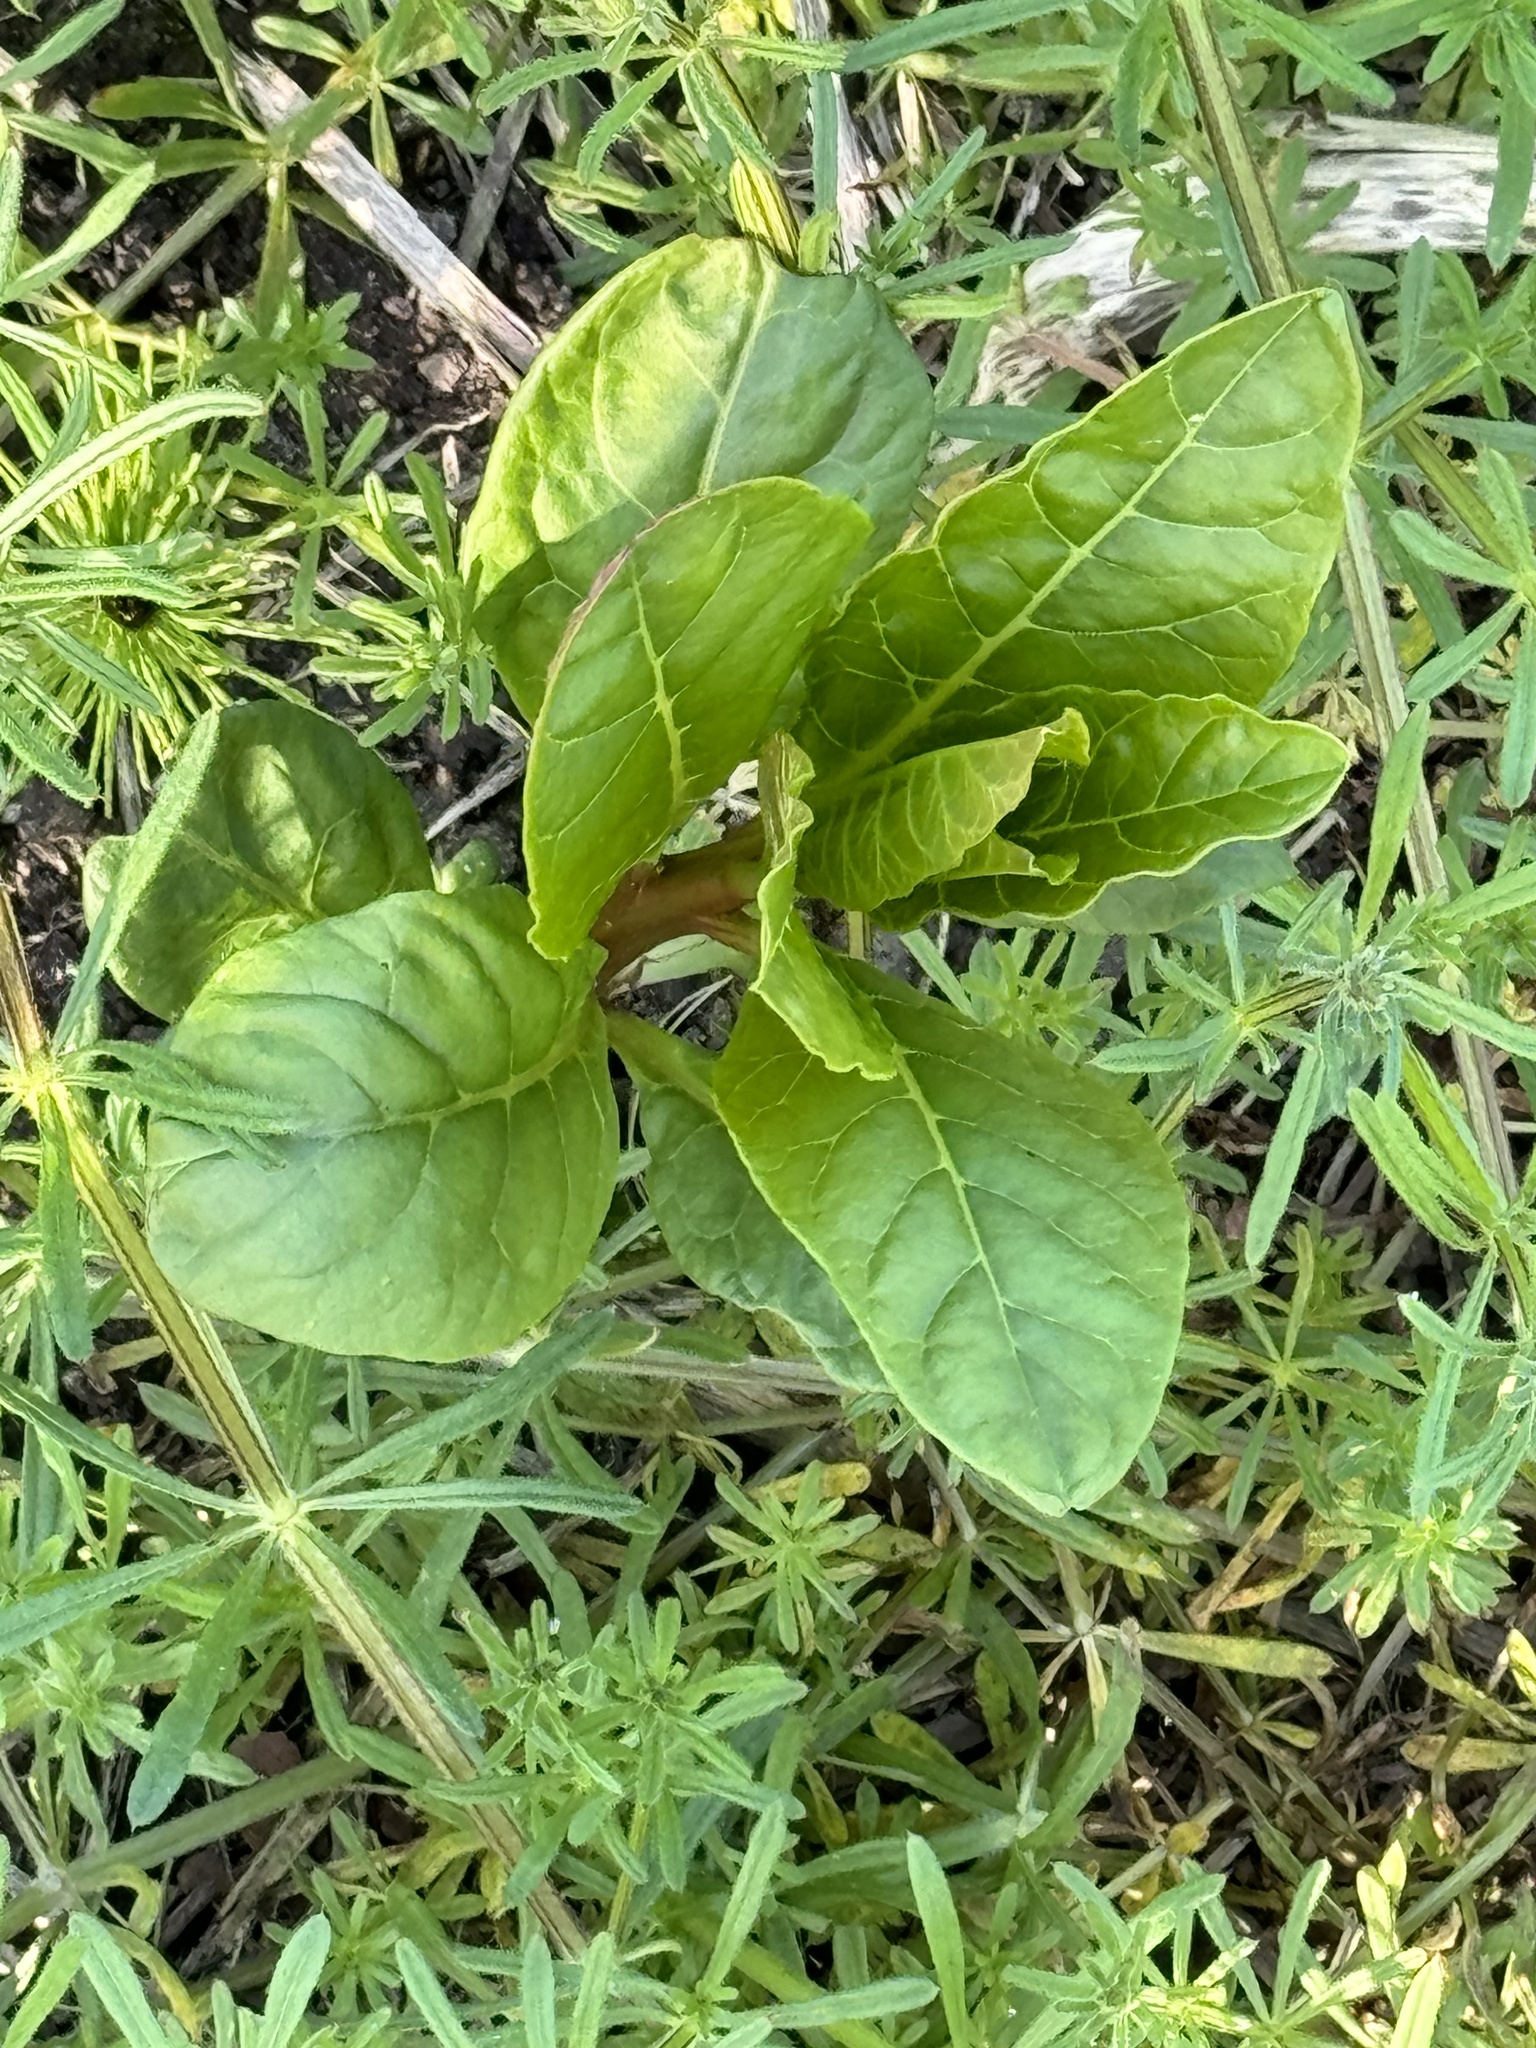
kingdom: Plantae
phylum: Tracheophyta
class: Magnoliopsida
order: Caryophyllales
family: Phytolaccaceae
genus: Phytolacca
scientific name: Phytolacca americana
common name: American pokeweed
